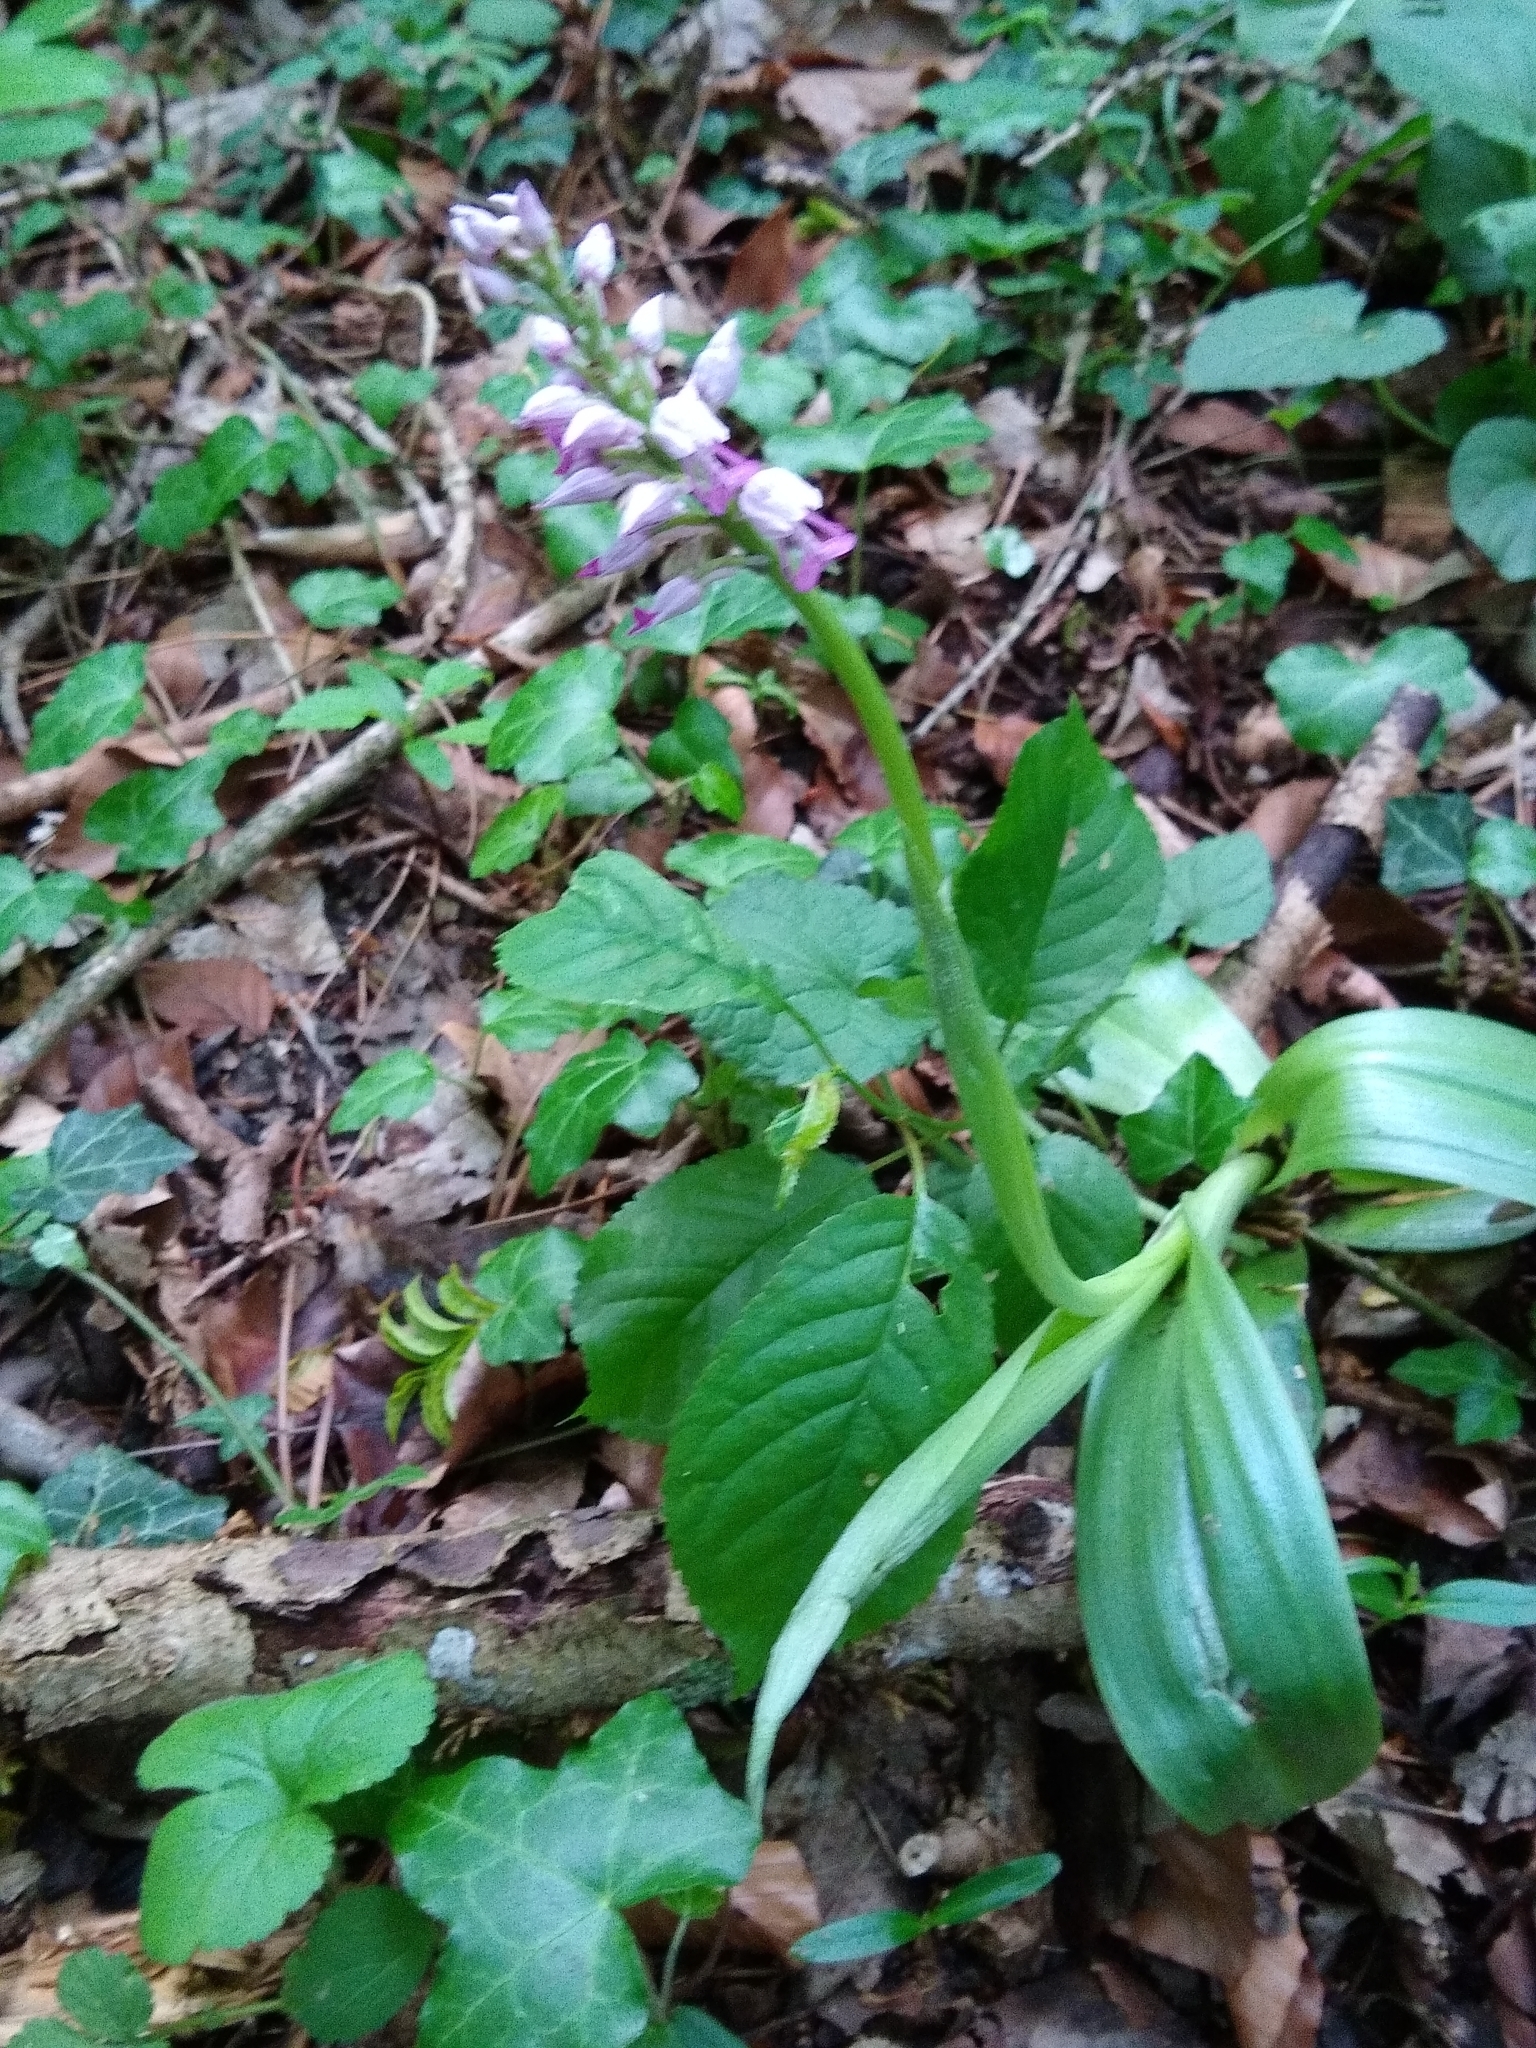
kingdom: Plantae
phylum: Tracheophyta
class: Liliopsida
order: Asparagales
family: Orchidaceae
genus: Orchis
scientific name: Orchis militaris
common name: Military orchid
